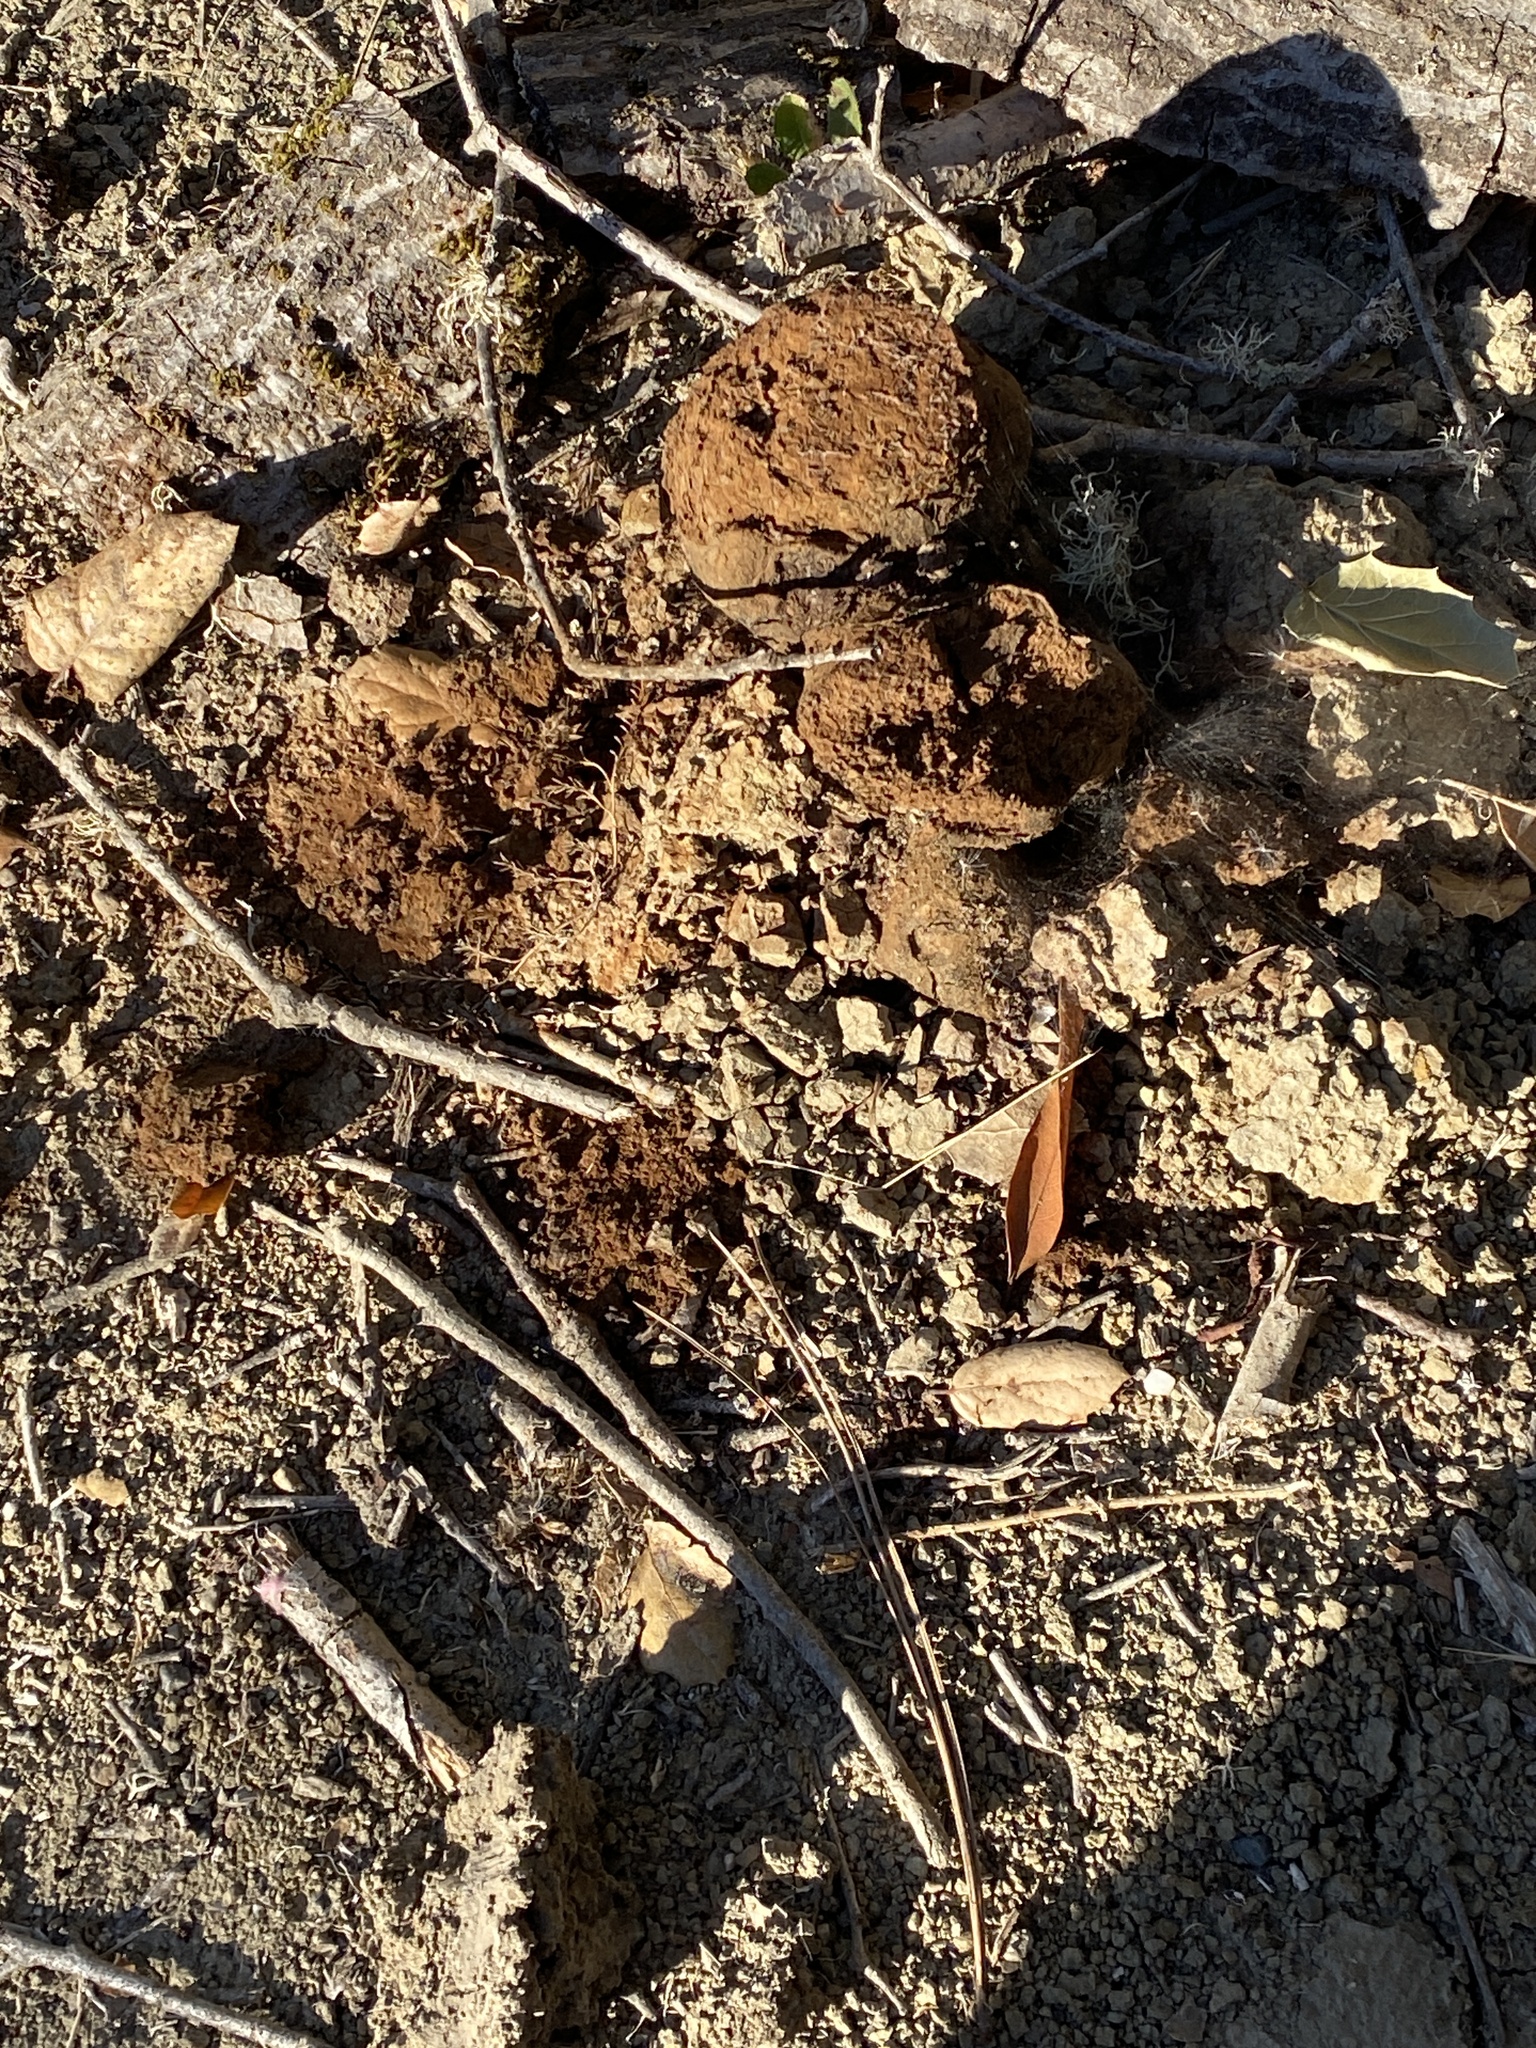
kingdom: Fungi
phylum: Basidiomycota
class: Agaricomycetes
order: Boletales
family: Sclerodermataceae
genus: Pisolithus
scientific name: Pisolithus tinctorius
